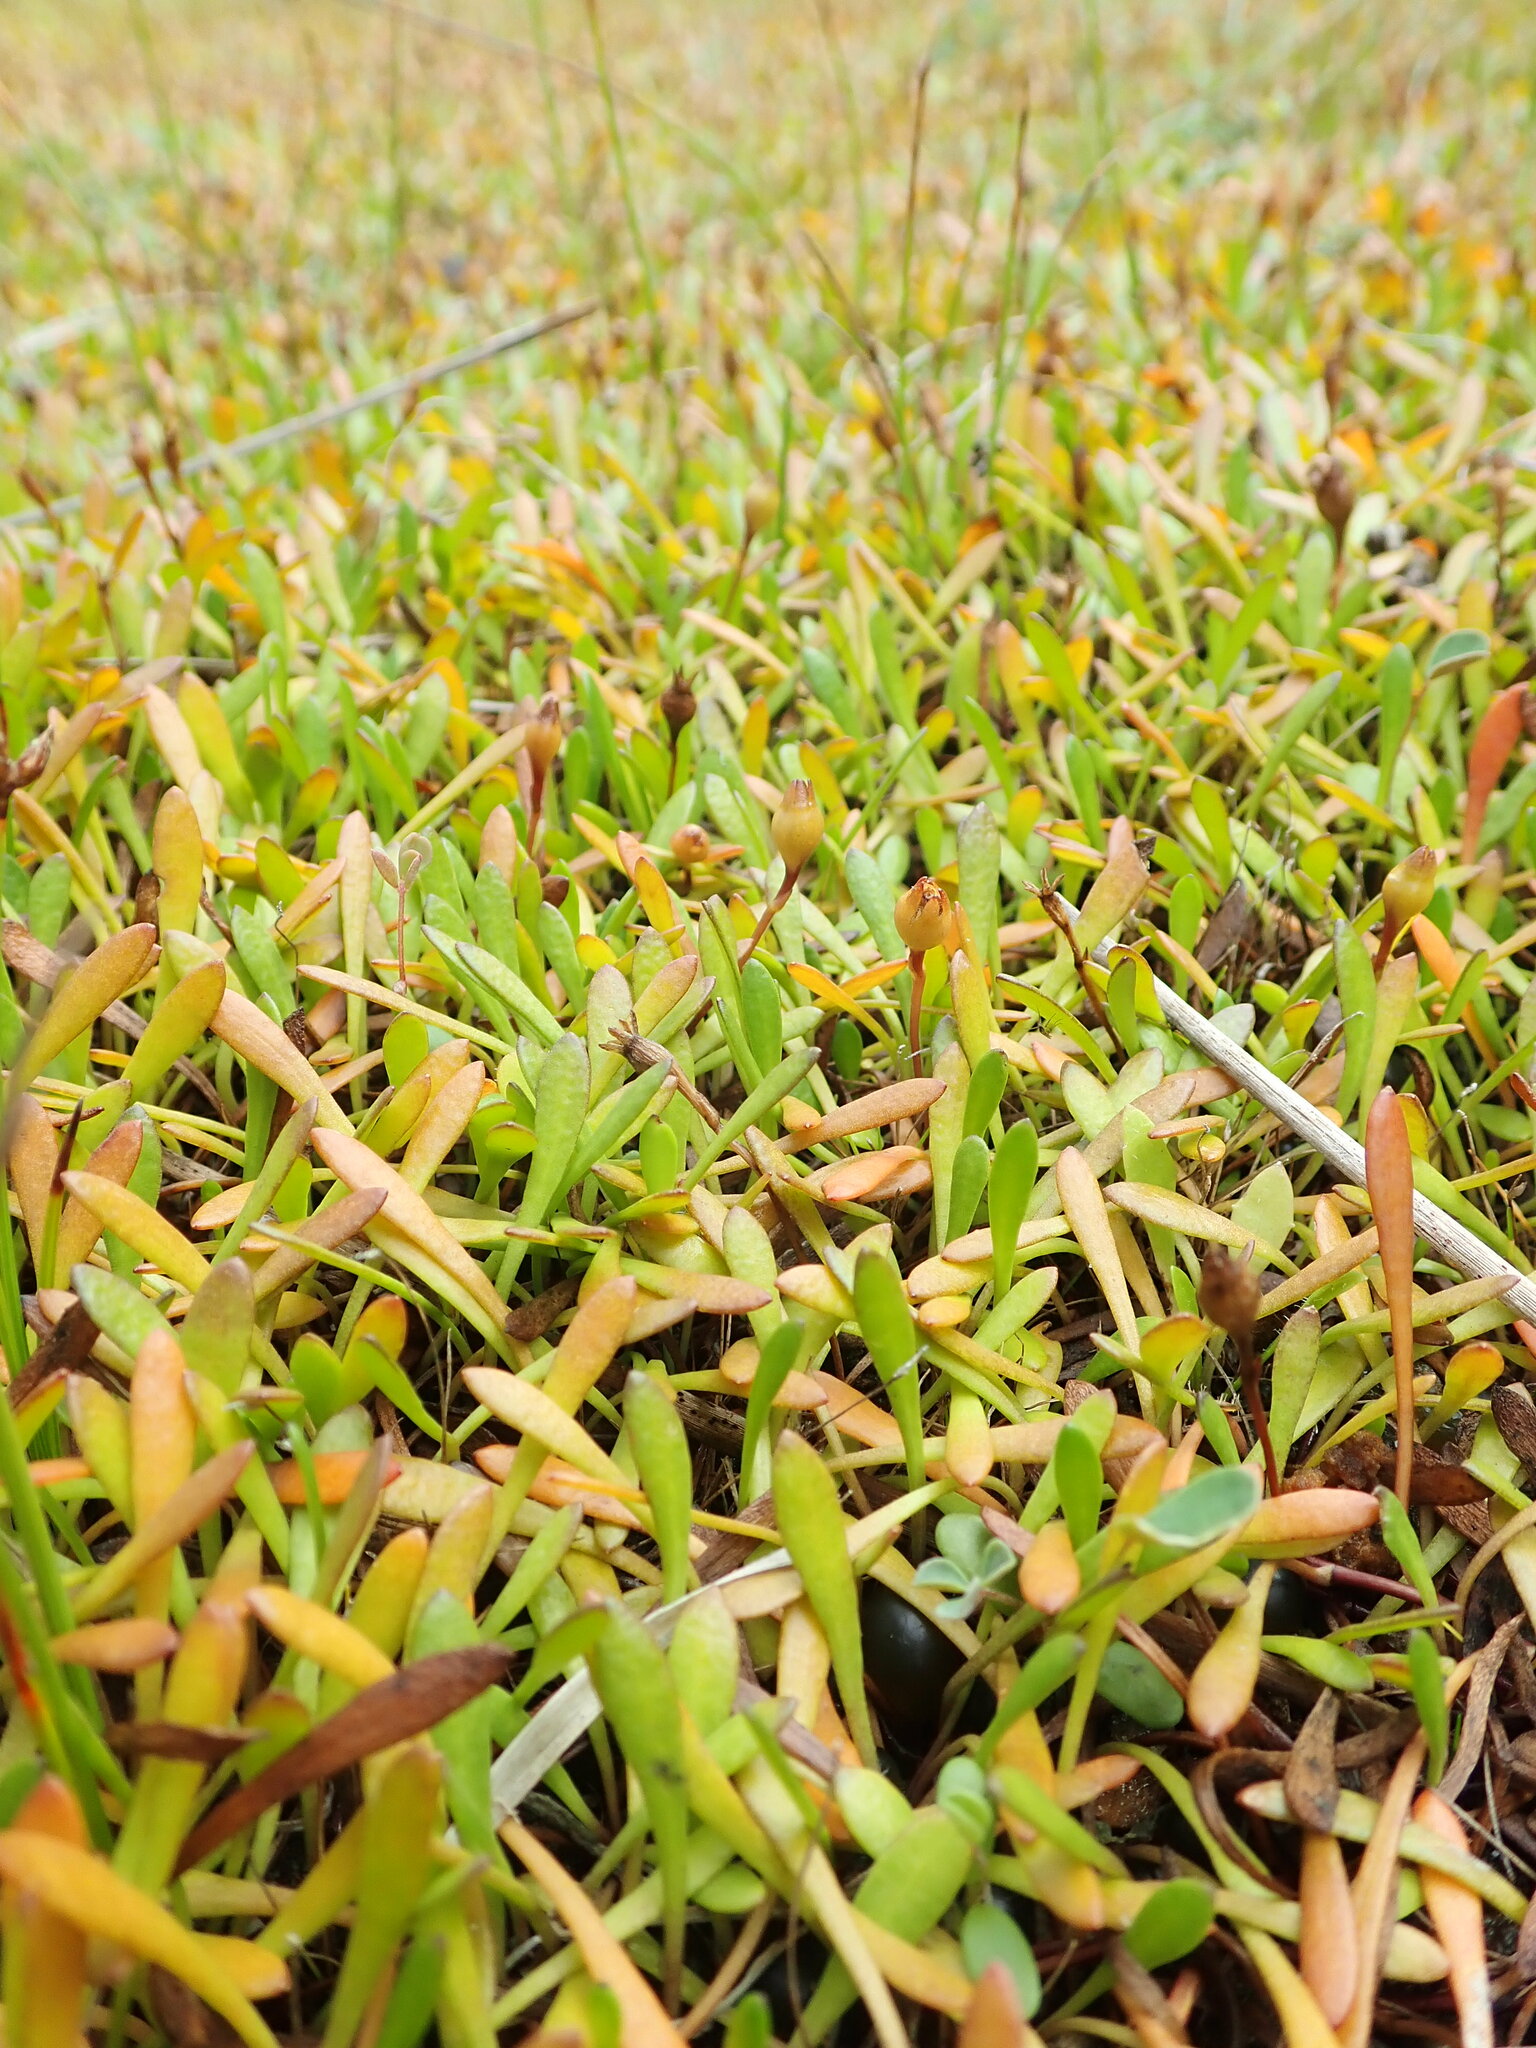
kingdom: Plantae
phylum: Tracheophyta
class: Magnoliopsida
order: Asterales
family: Goodeniaceae
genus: Goodenia
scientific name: Goodenia radicans
